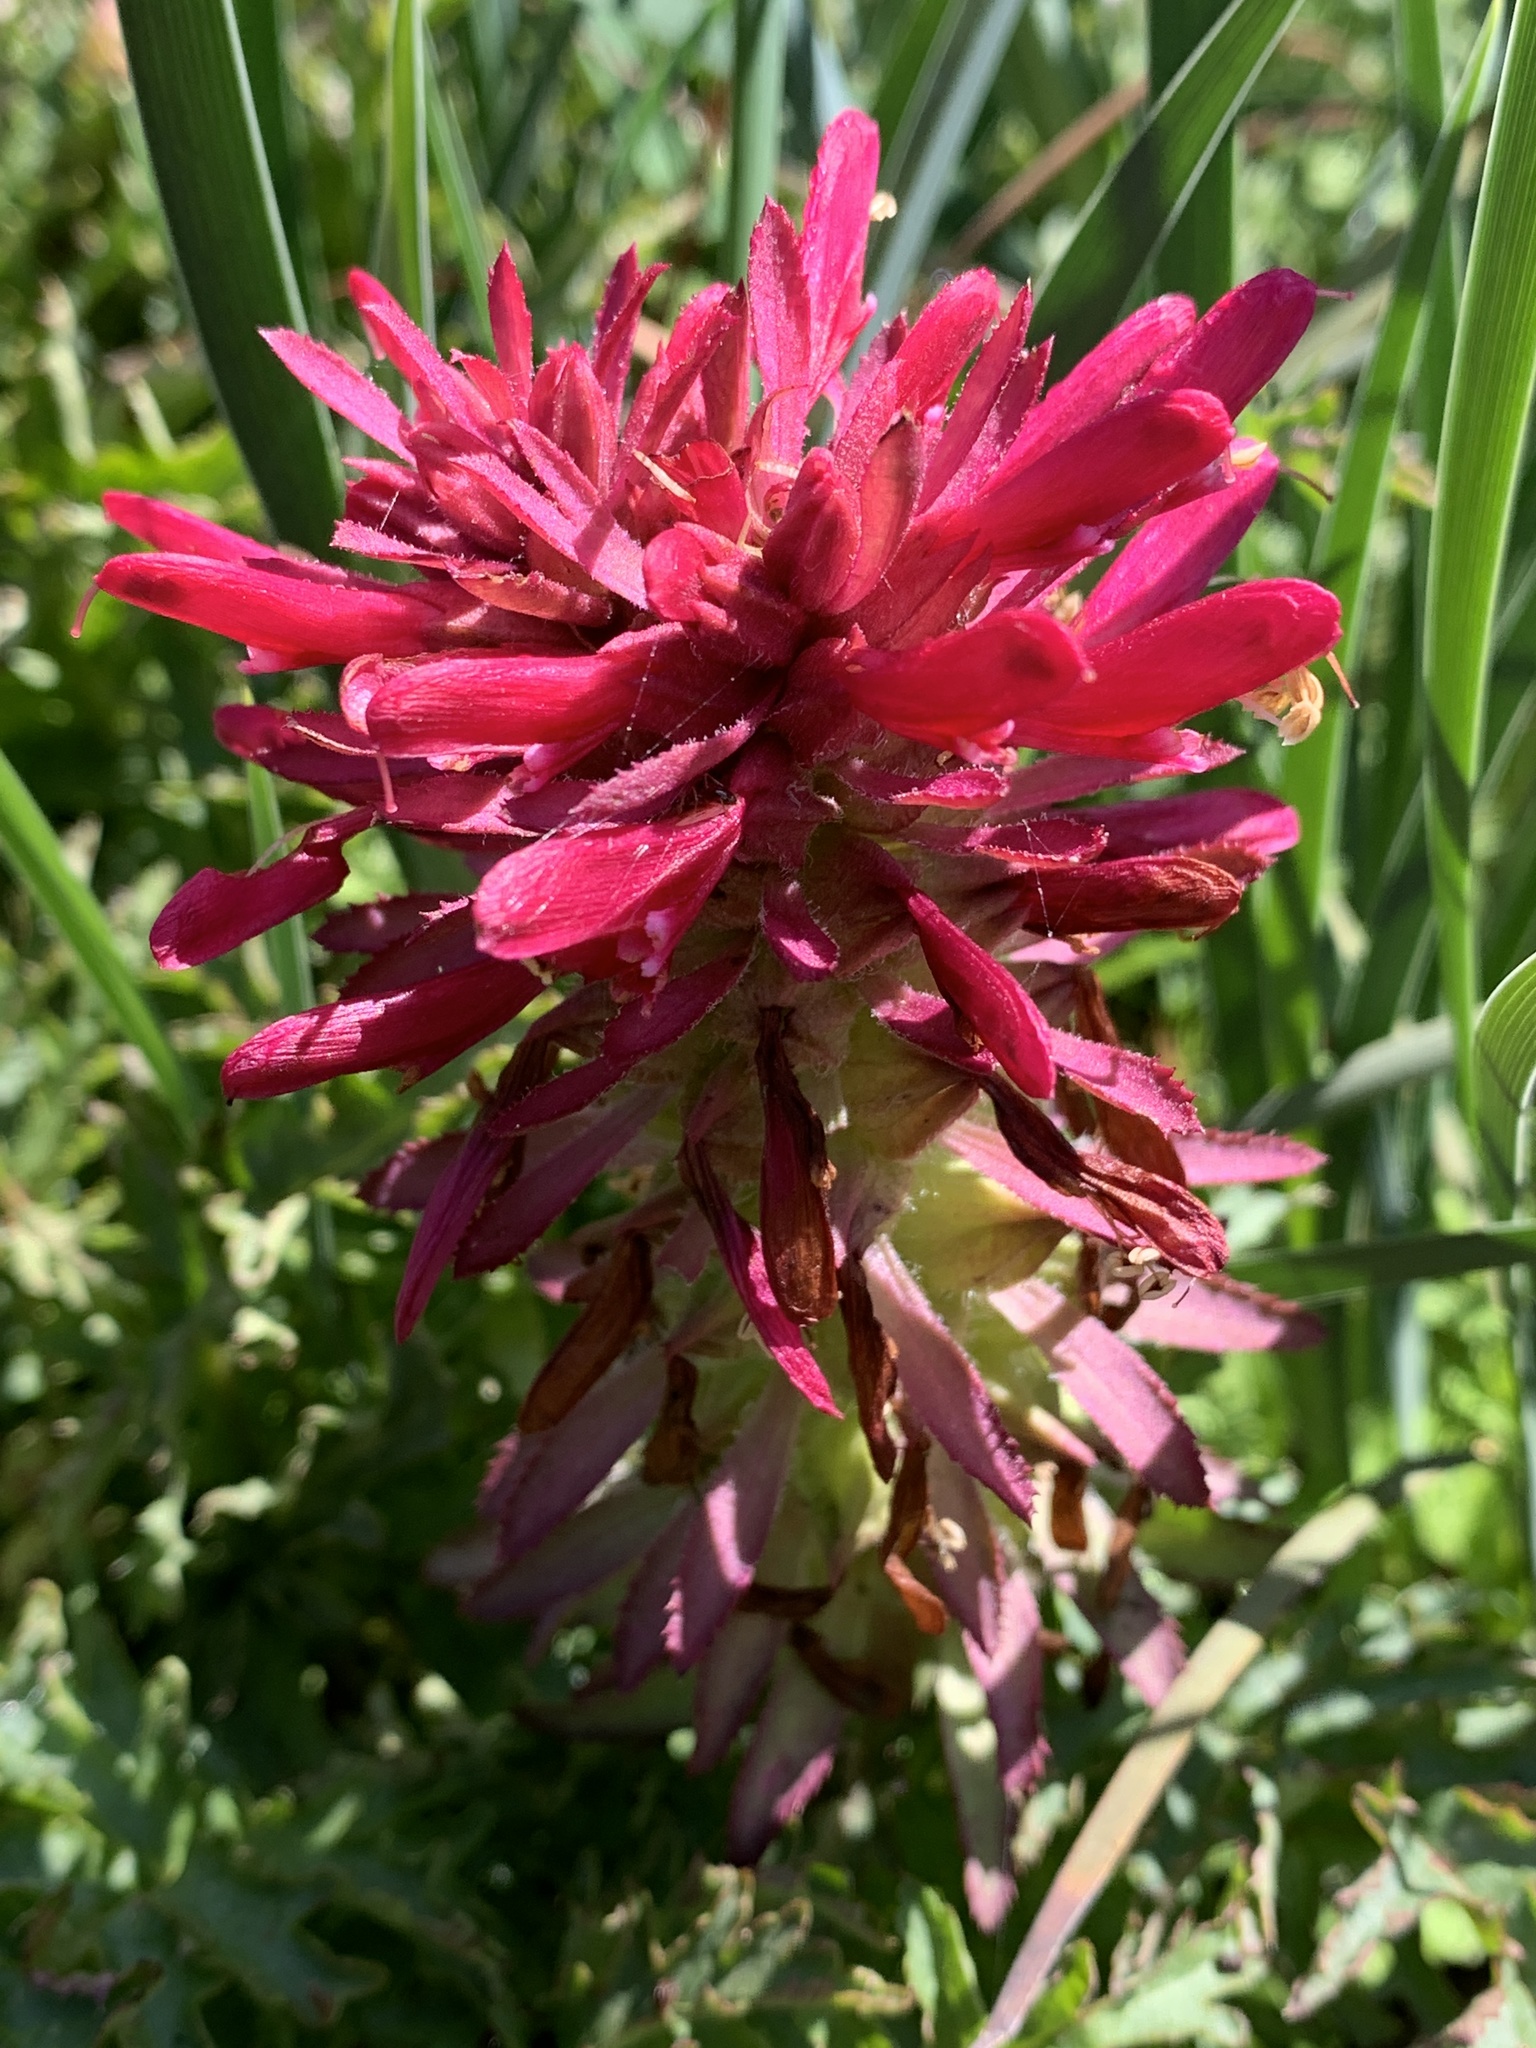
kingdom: Plantae
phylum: Tracheophyta
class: Magnoliopsida
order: Lamiales
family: Orobanchaceae
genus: Pedicularis
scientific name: Pedicularis densiflora
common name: Indian warrior
